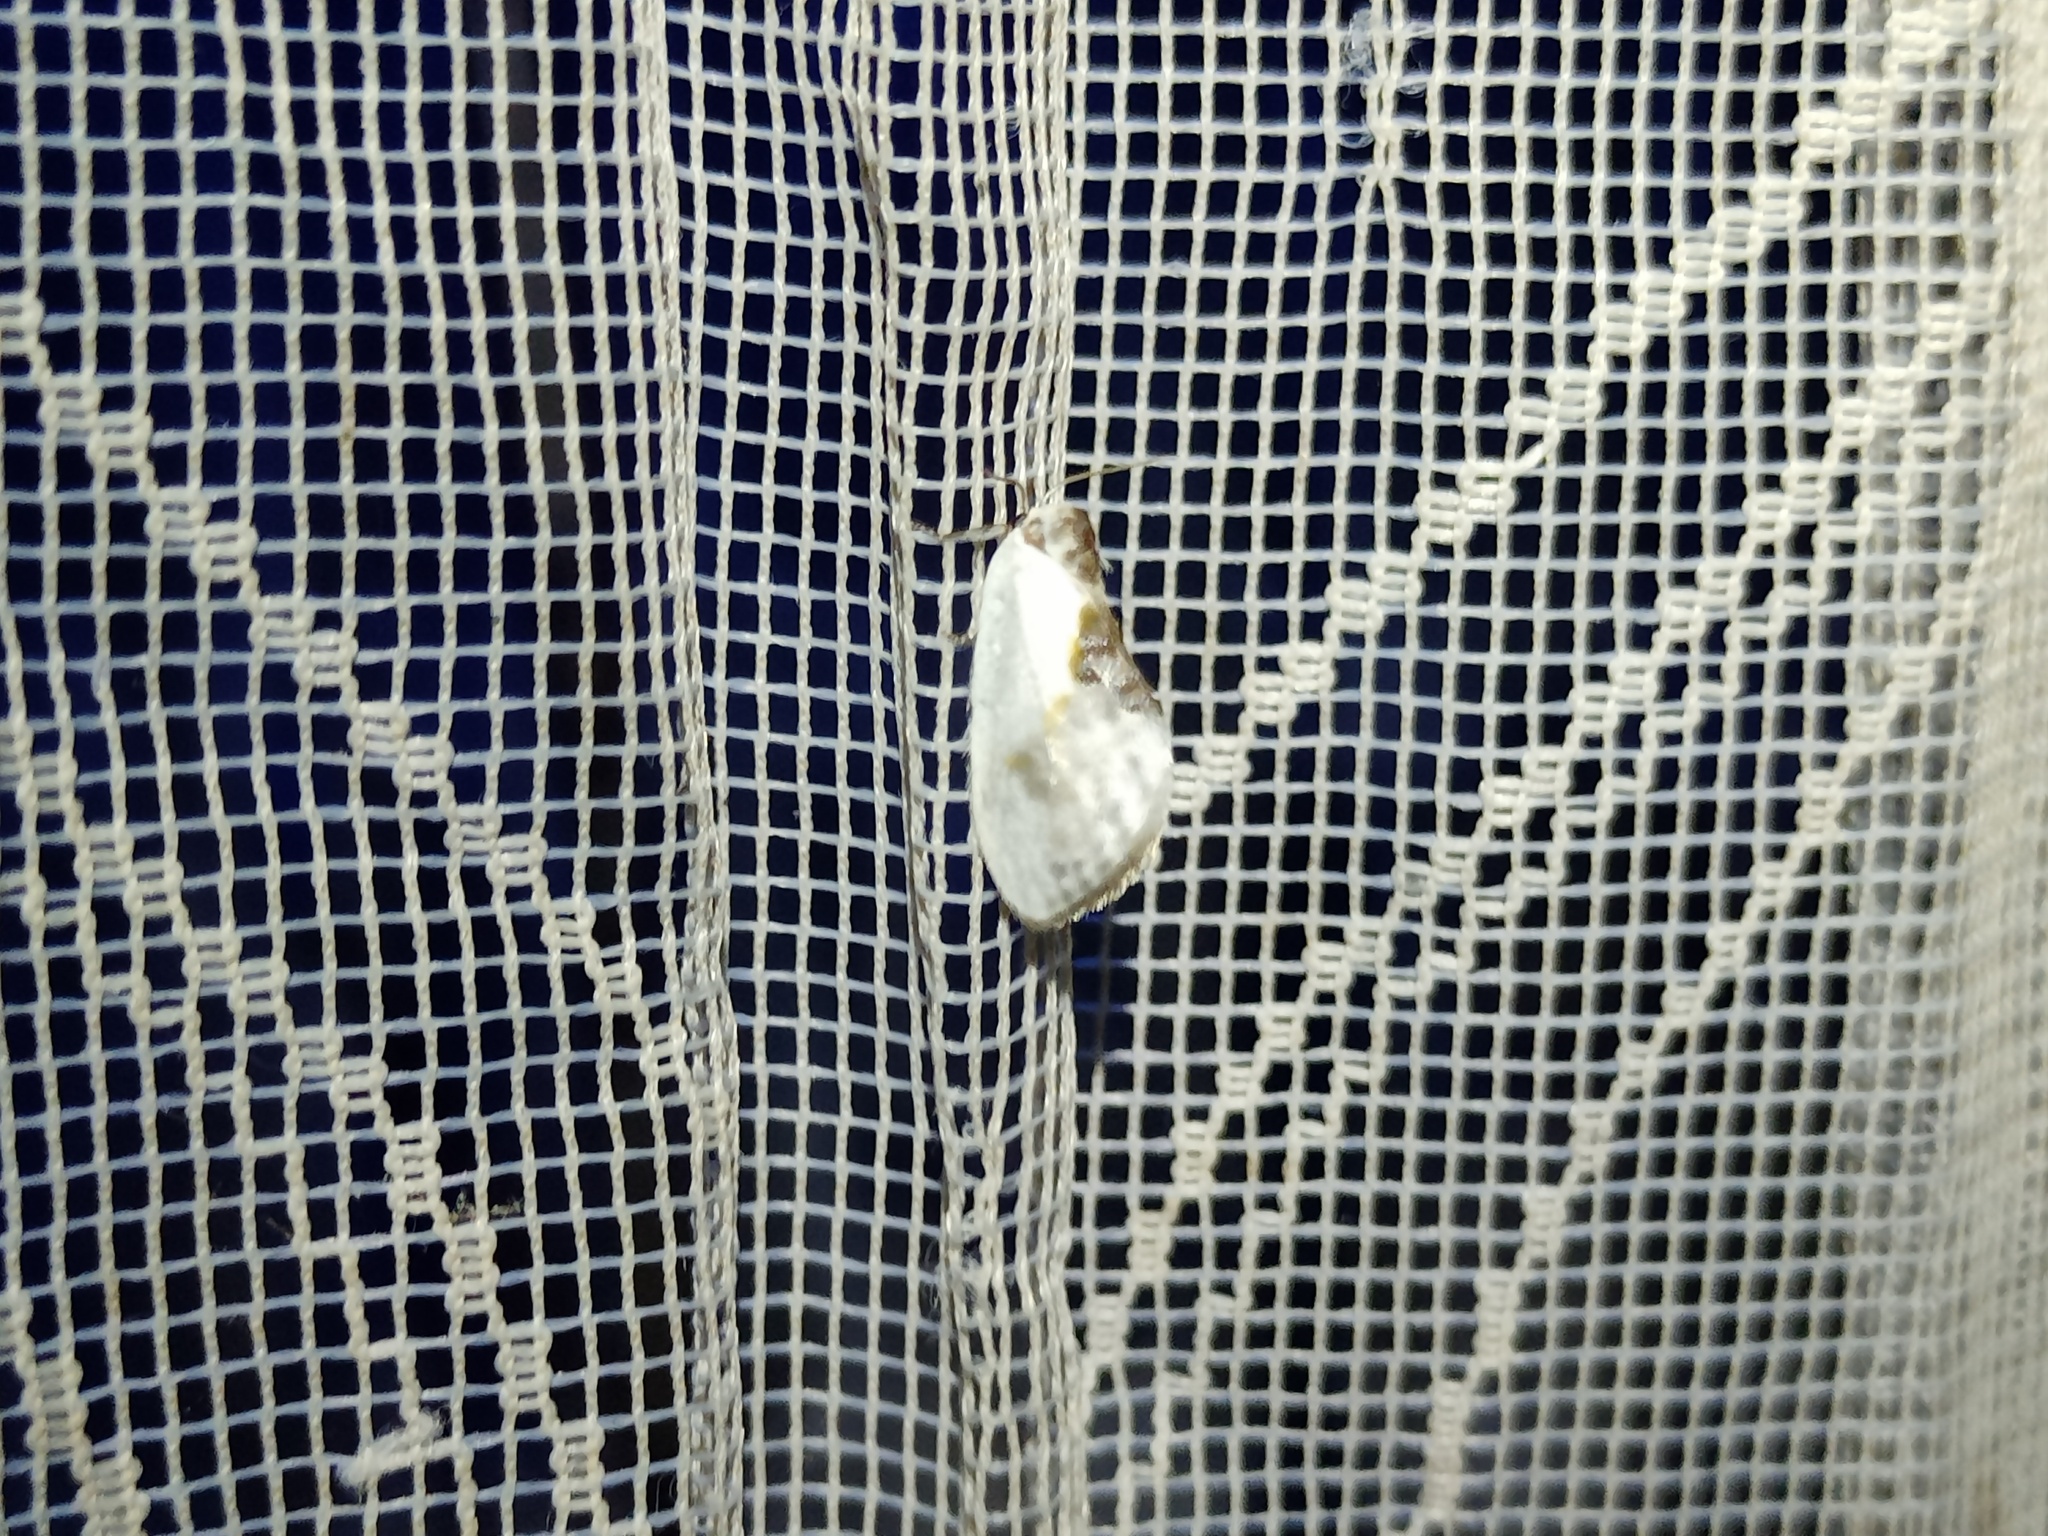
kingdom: Animalia
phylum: Arthropoda
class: Insecta
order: Lepidoptera
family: Drepanidae
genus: Cilix
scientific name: Cilix glaucata
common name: Chinese character
